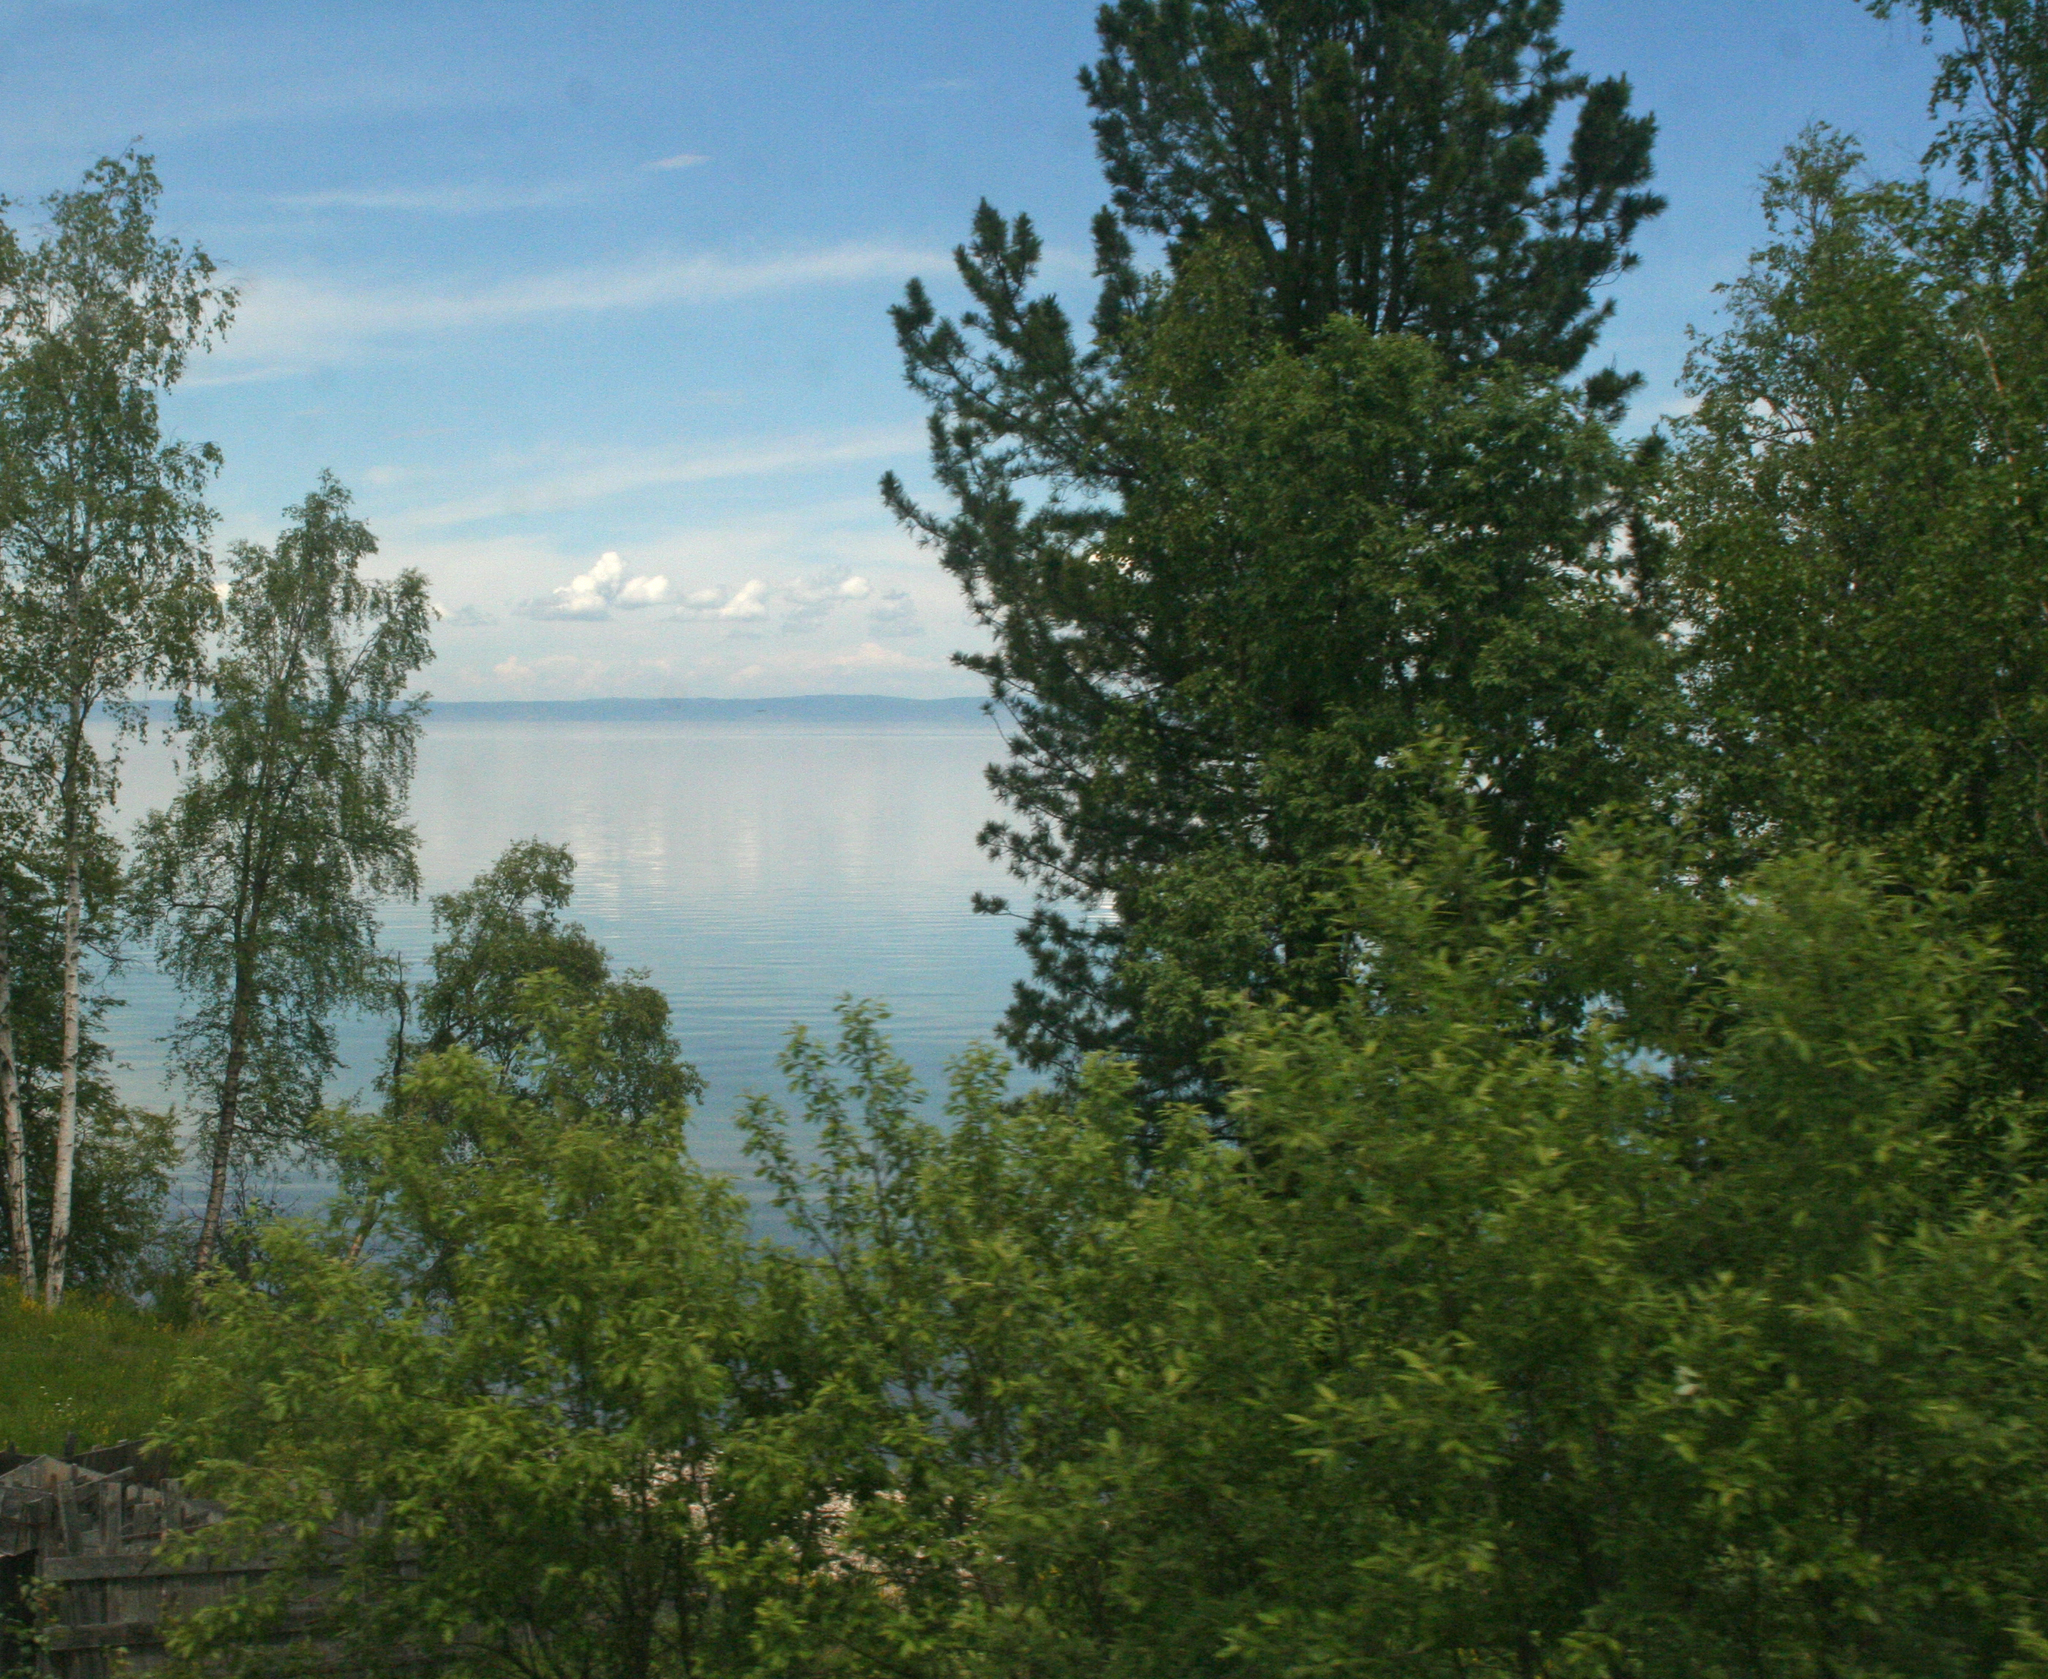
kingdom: Plantae
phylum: Tracheophyta
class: Magnoliopsida
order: Fagales
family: Betulaceae
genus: Betula
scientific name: Betula pendula
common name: Silver birch
